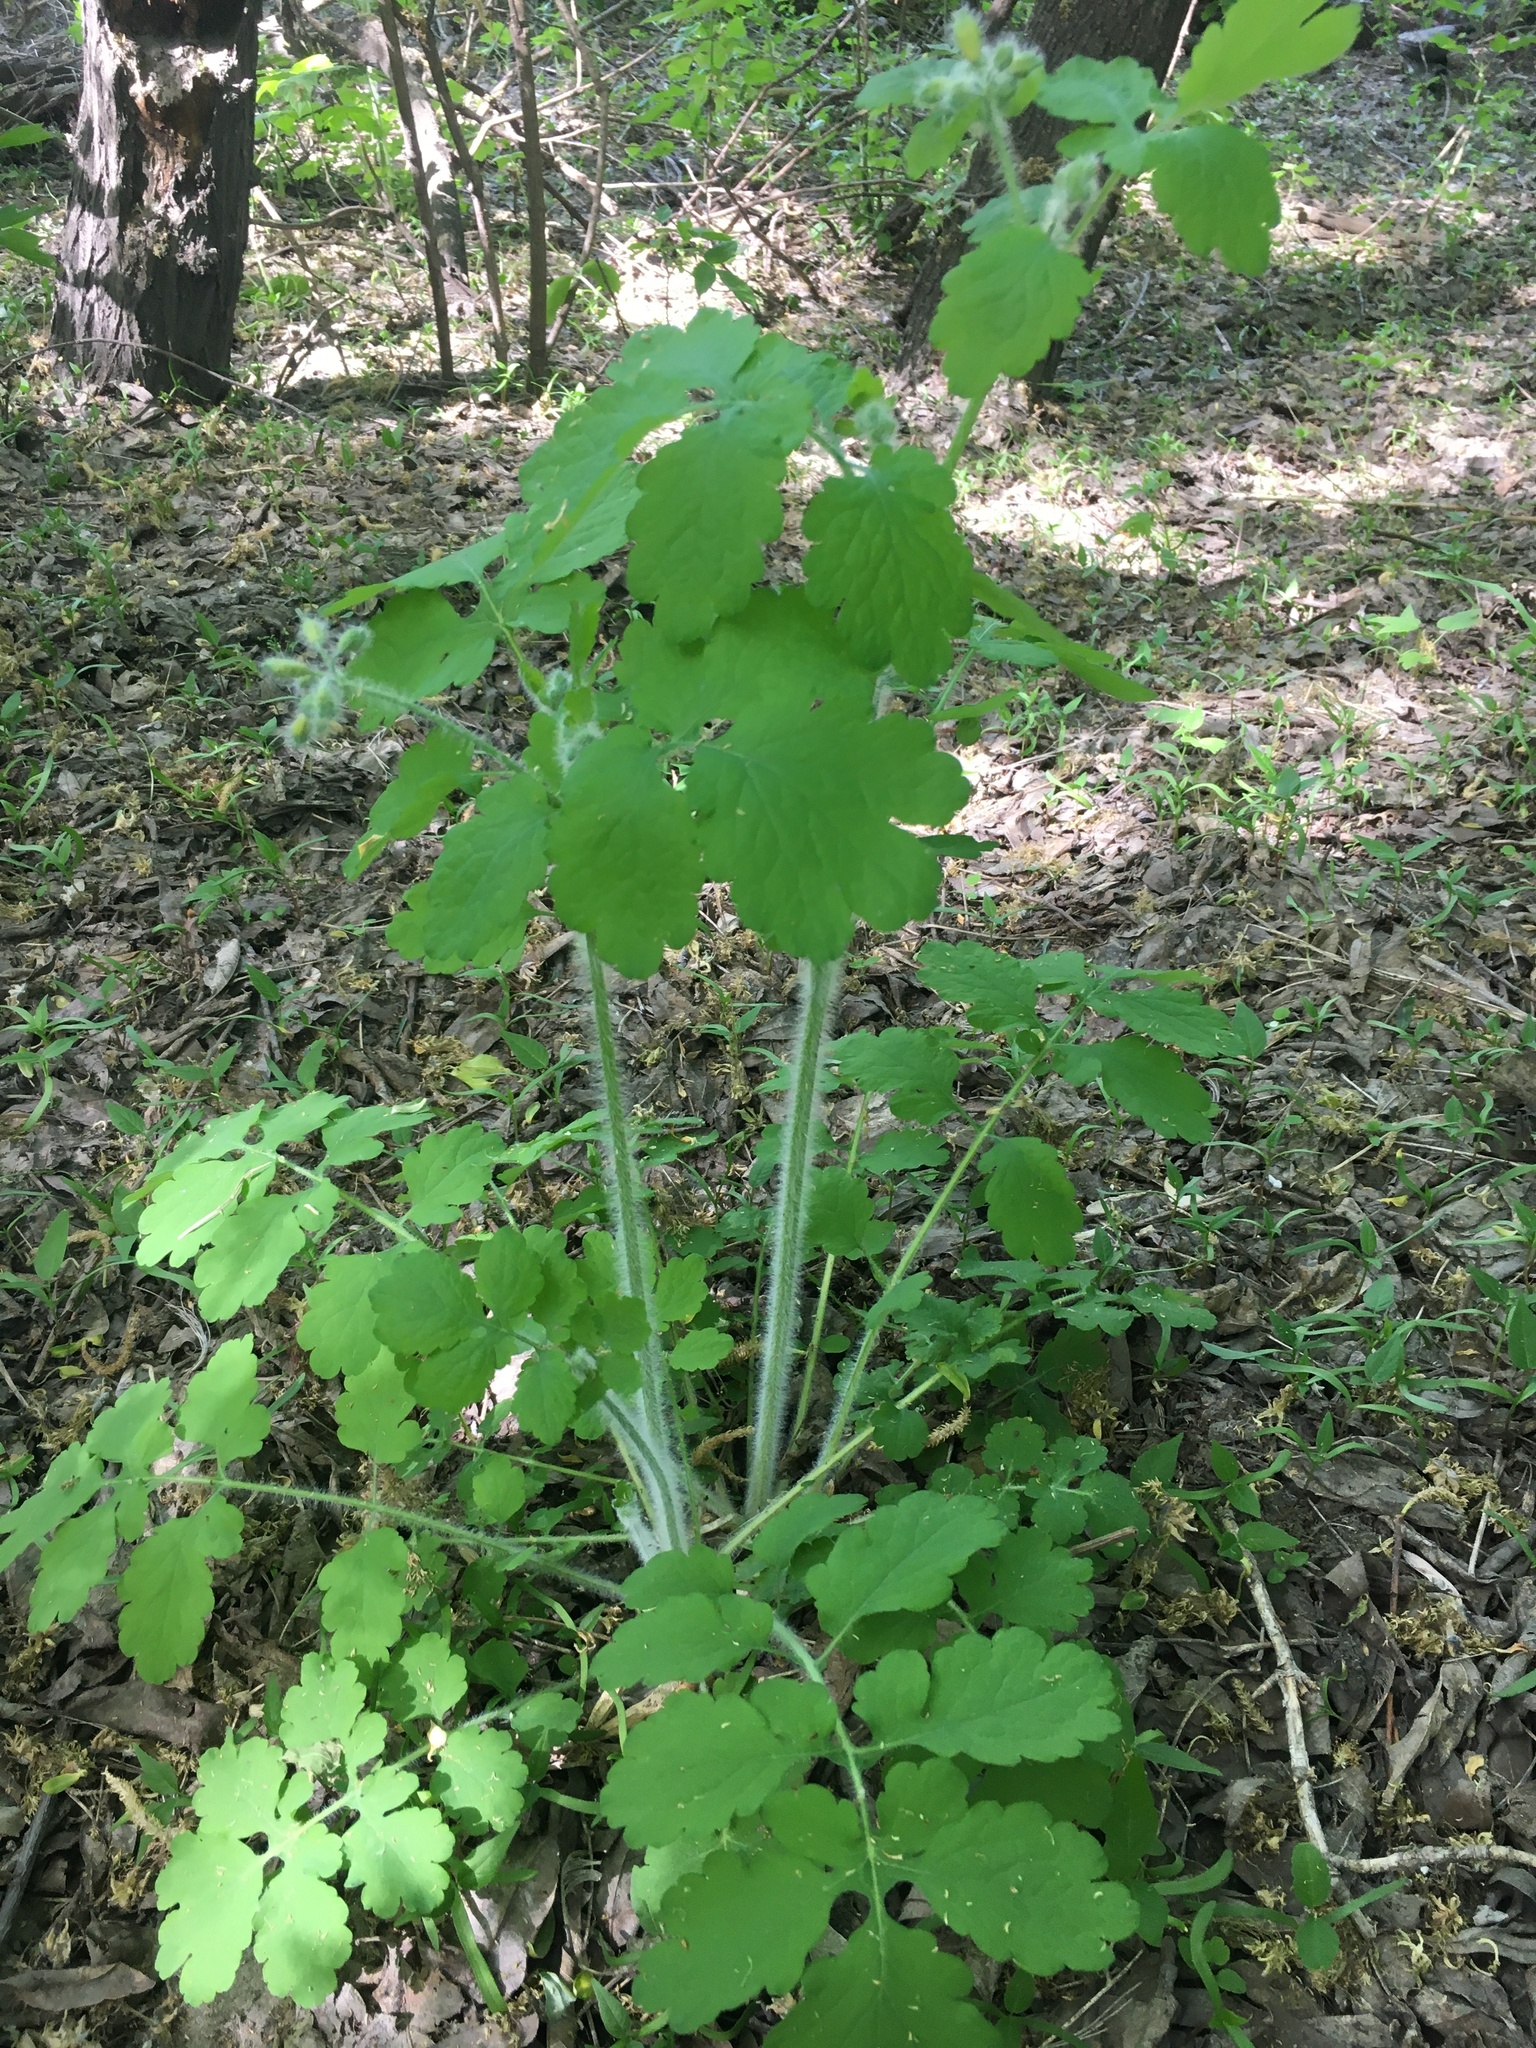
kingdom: Plantae
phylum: Tracheophyta
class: Magnoliopsida
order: Ranunculales
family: Papaveraceae
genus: Chelidonium
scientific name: Chelidonium majus
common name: Greater celandine
